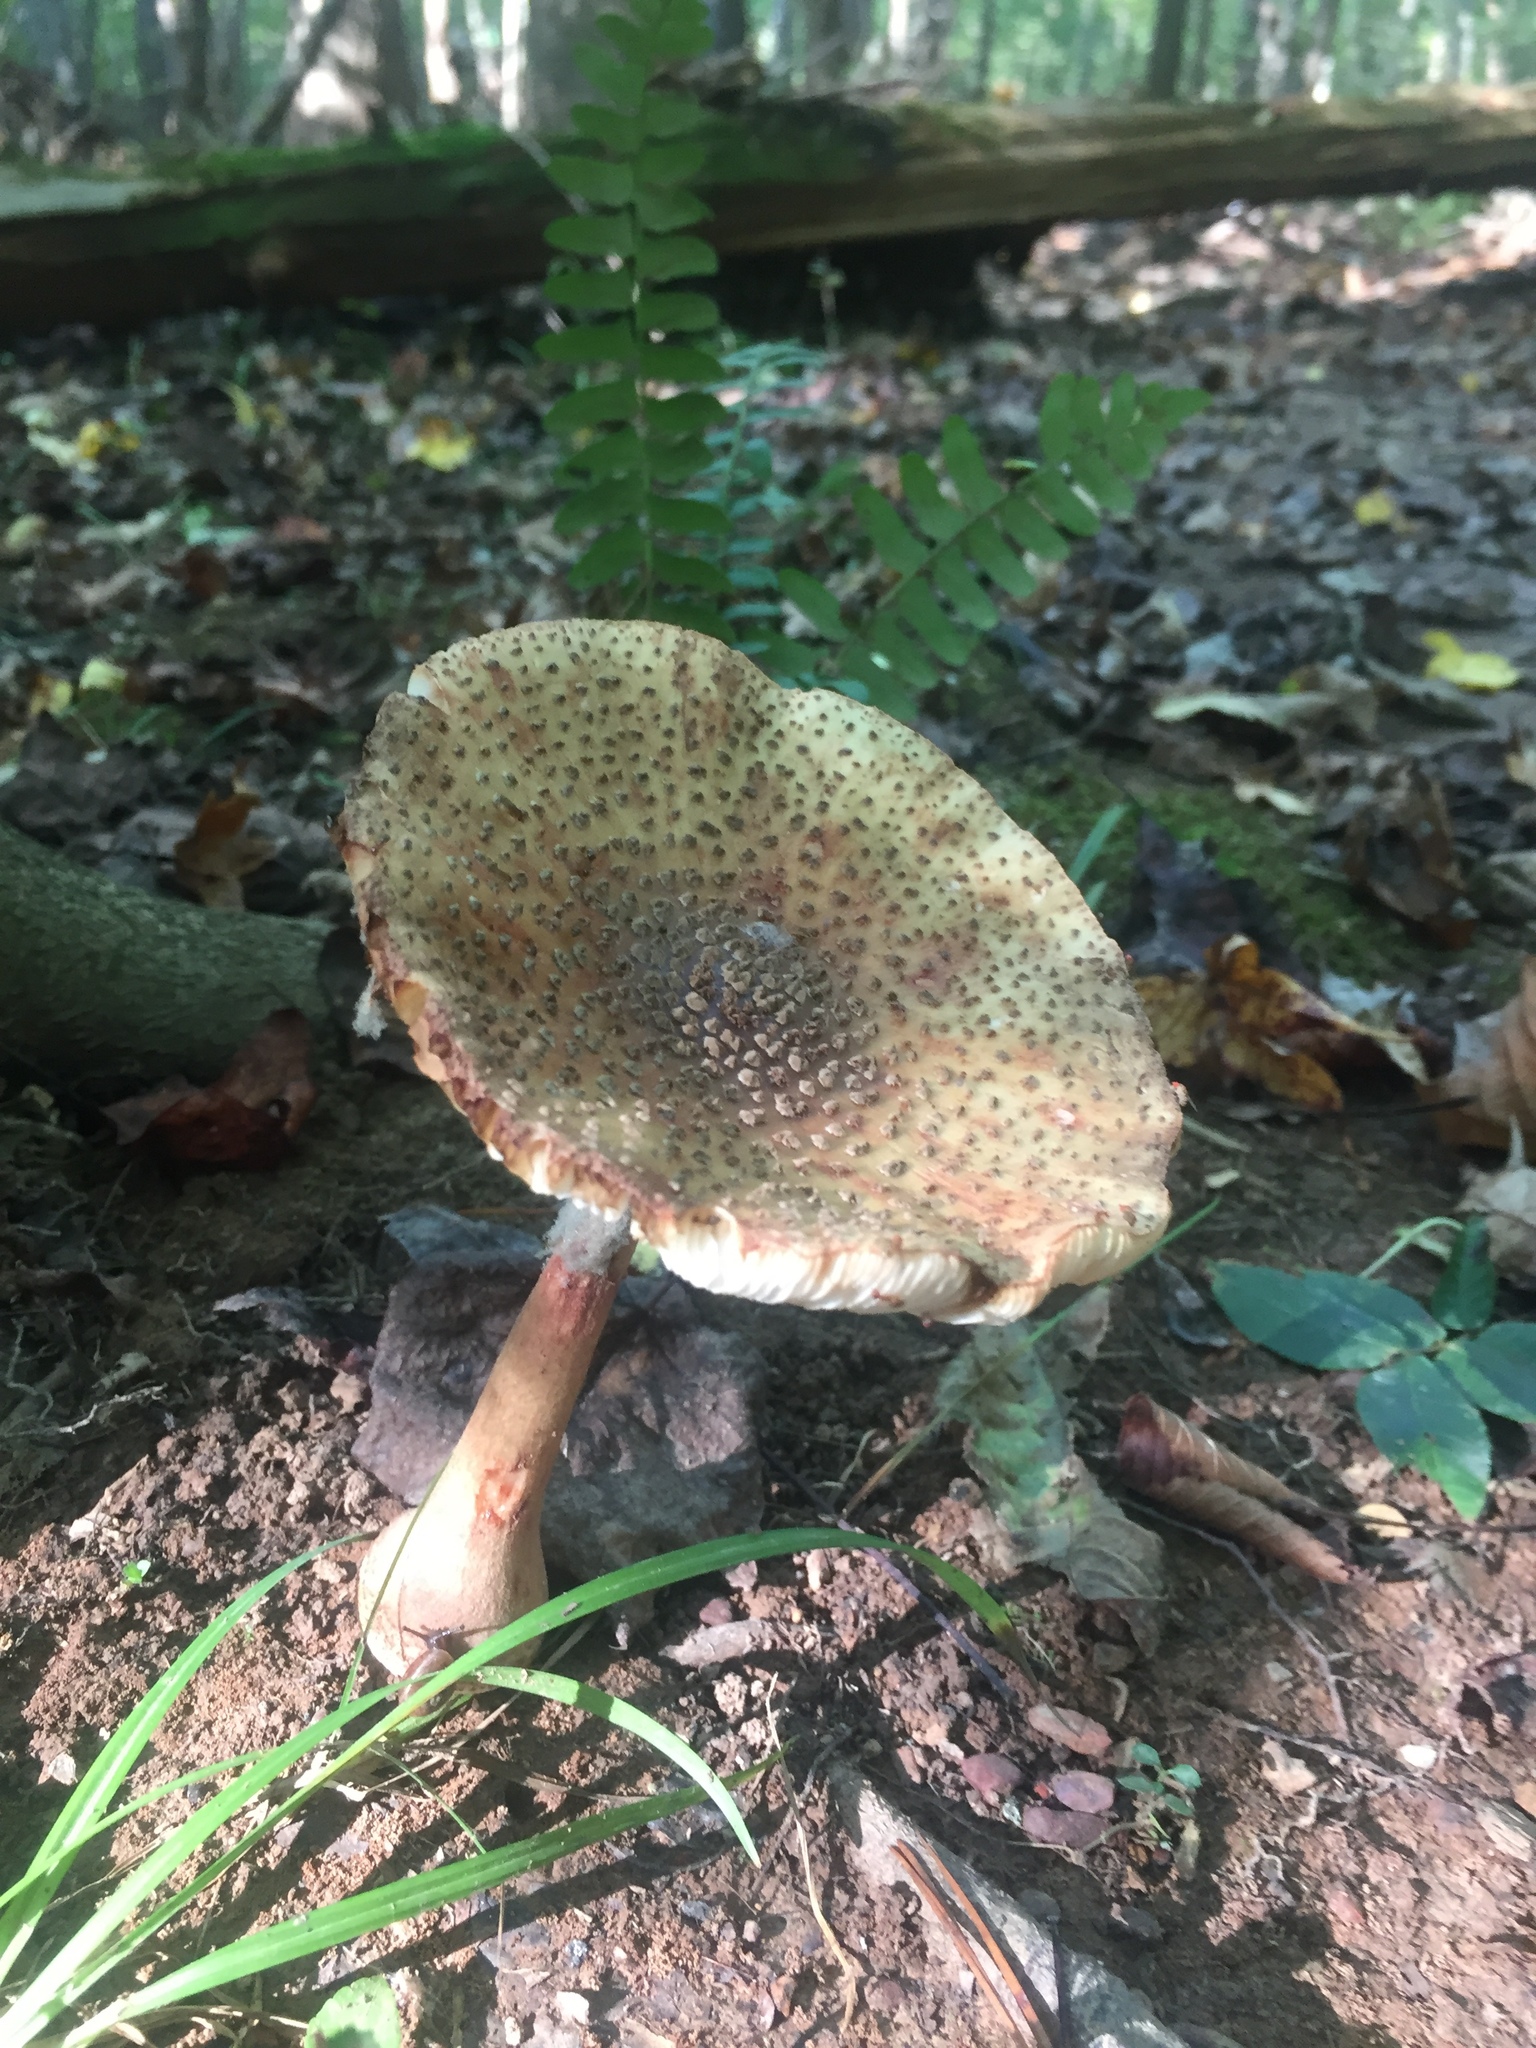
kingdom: Fungi
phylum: Basidiomycota
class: Agaricomycetes
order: Agaricales
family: Amanitaceae
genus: Amanita
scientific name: Amanita rubescens
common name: Blusher
